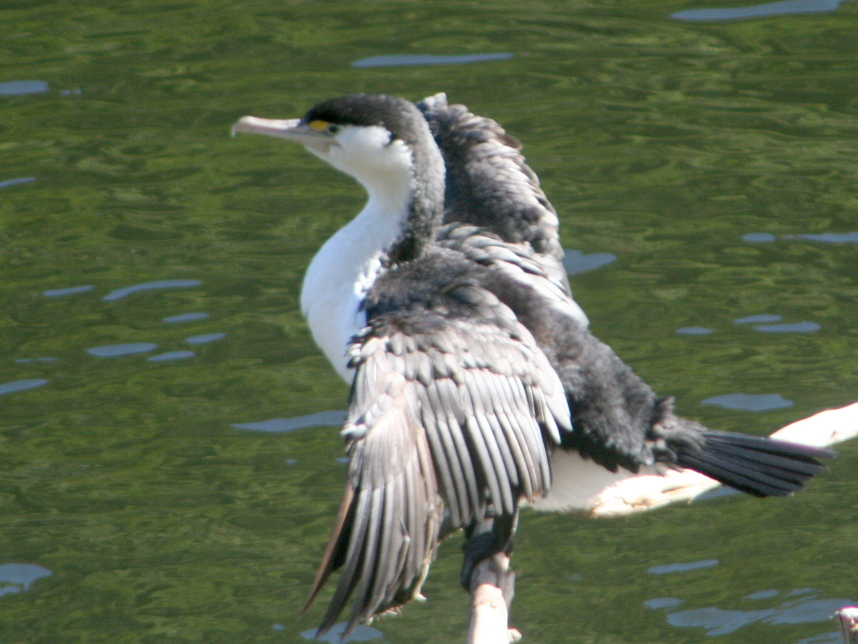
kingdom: Animalia
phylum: Chordata
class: Aves
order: Suliformes
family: Phalacrocoracidae
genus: Phalacrocorax
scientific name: Phalacrocorax varius
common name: Pied cormorant
